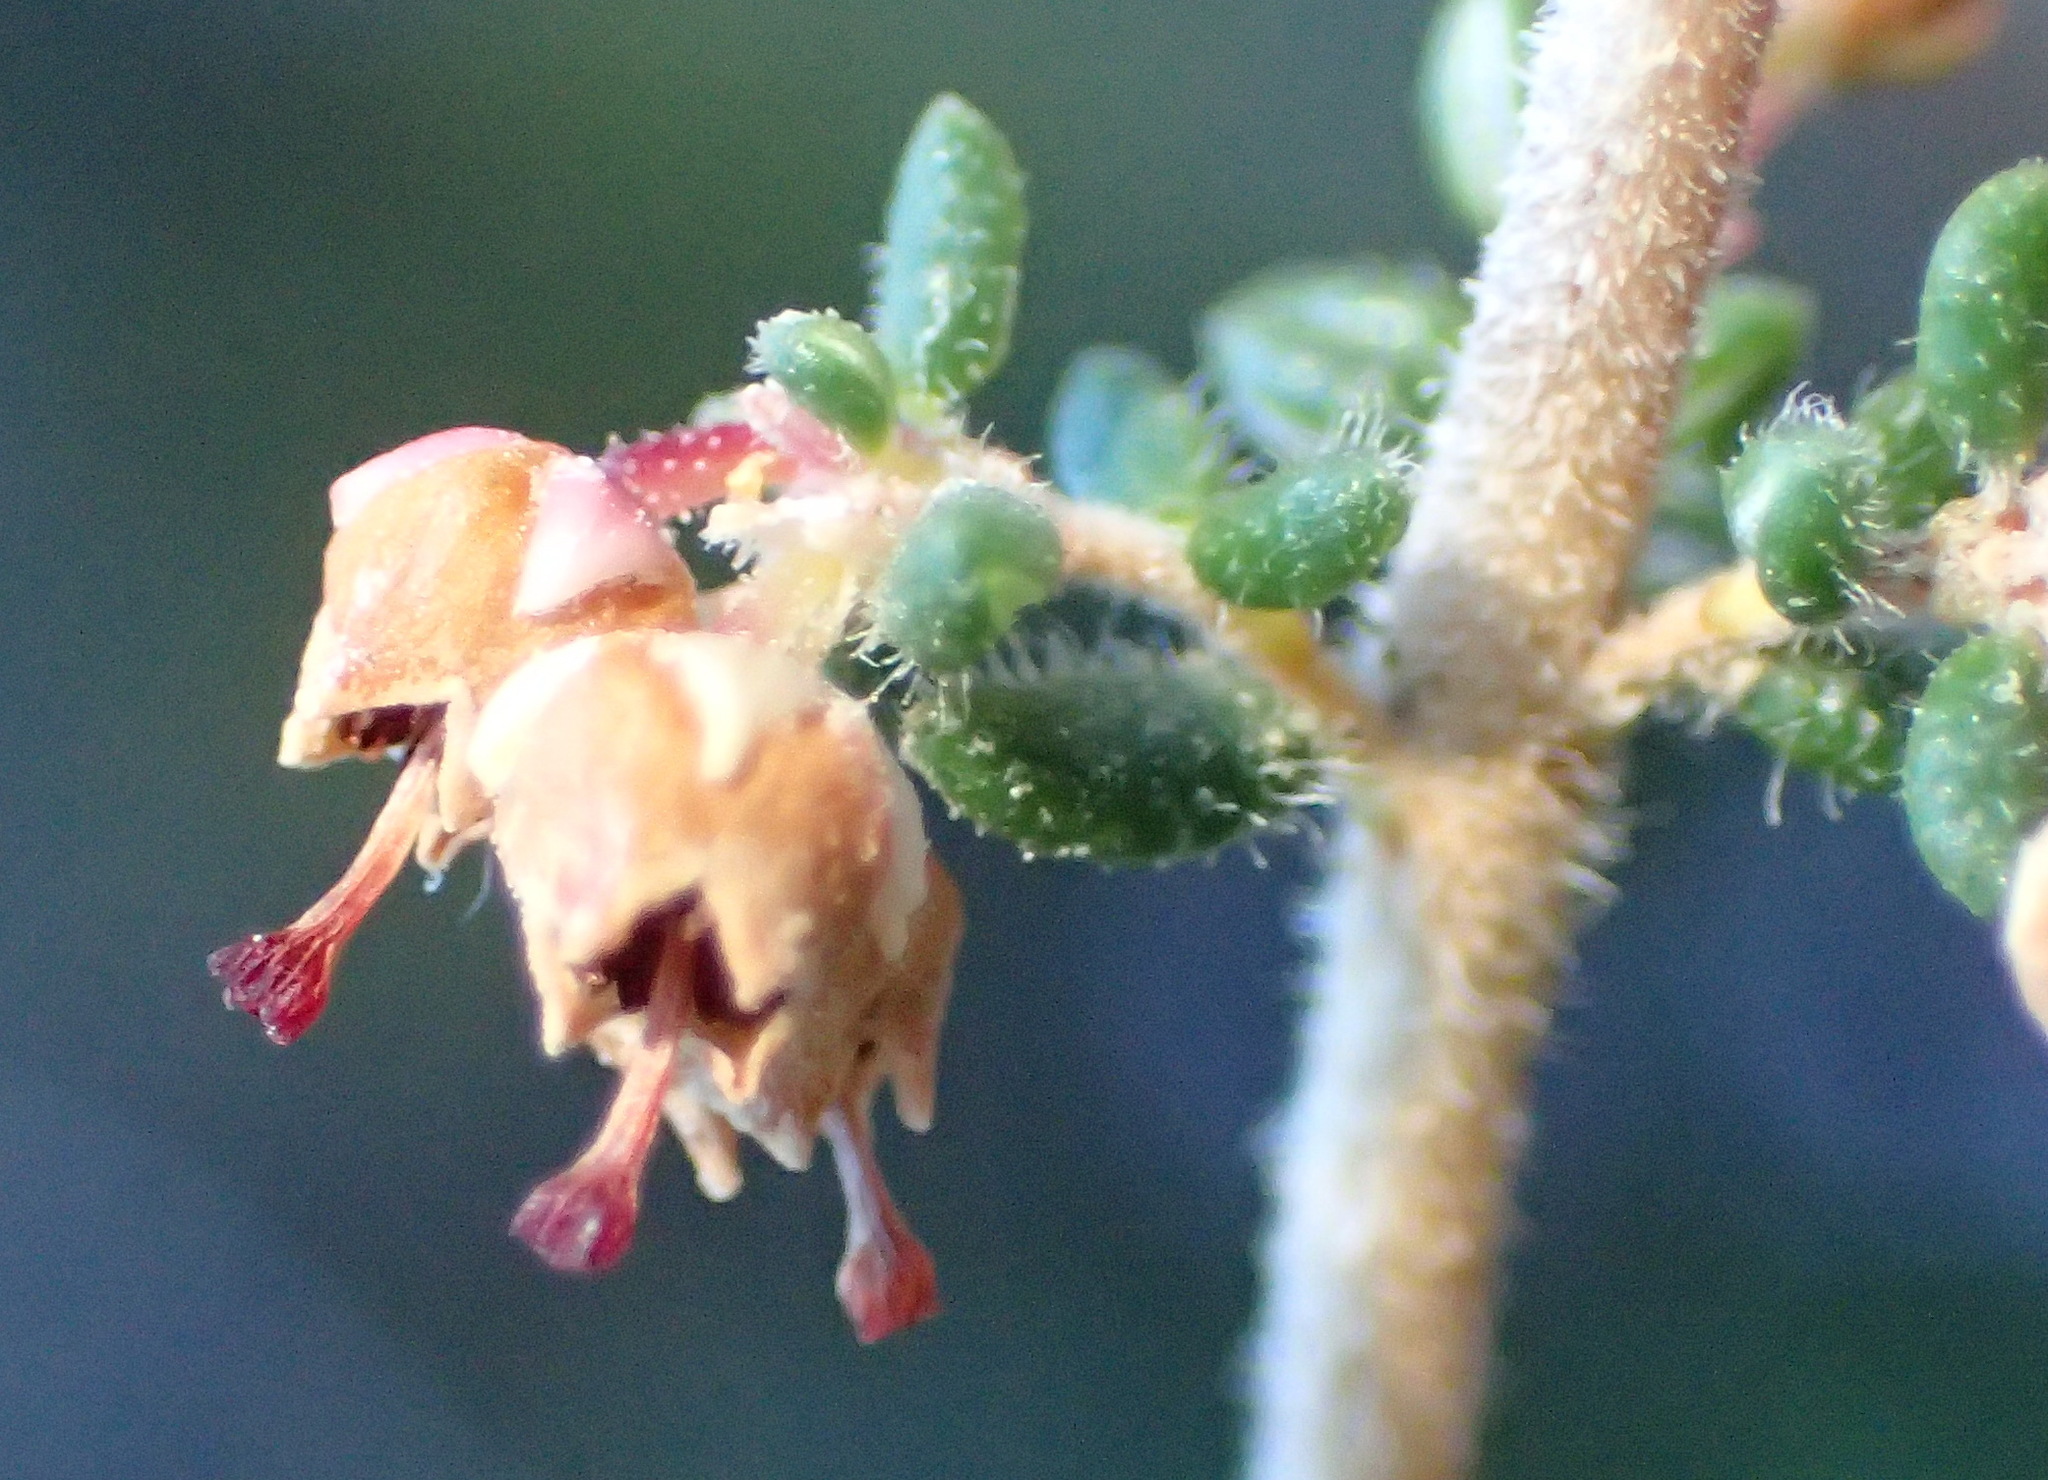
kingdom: Plantae
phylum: Tracheophyta
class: Magnoliopsida
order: Ericales
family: Ericaceae
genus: Erica
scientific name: Erica hispidula
